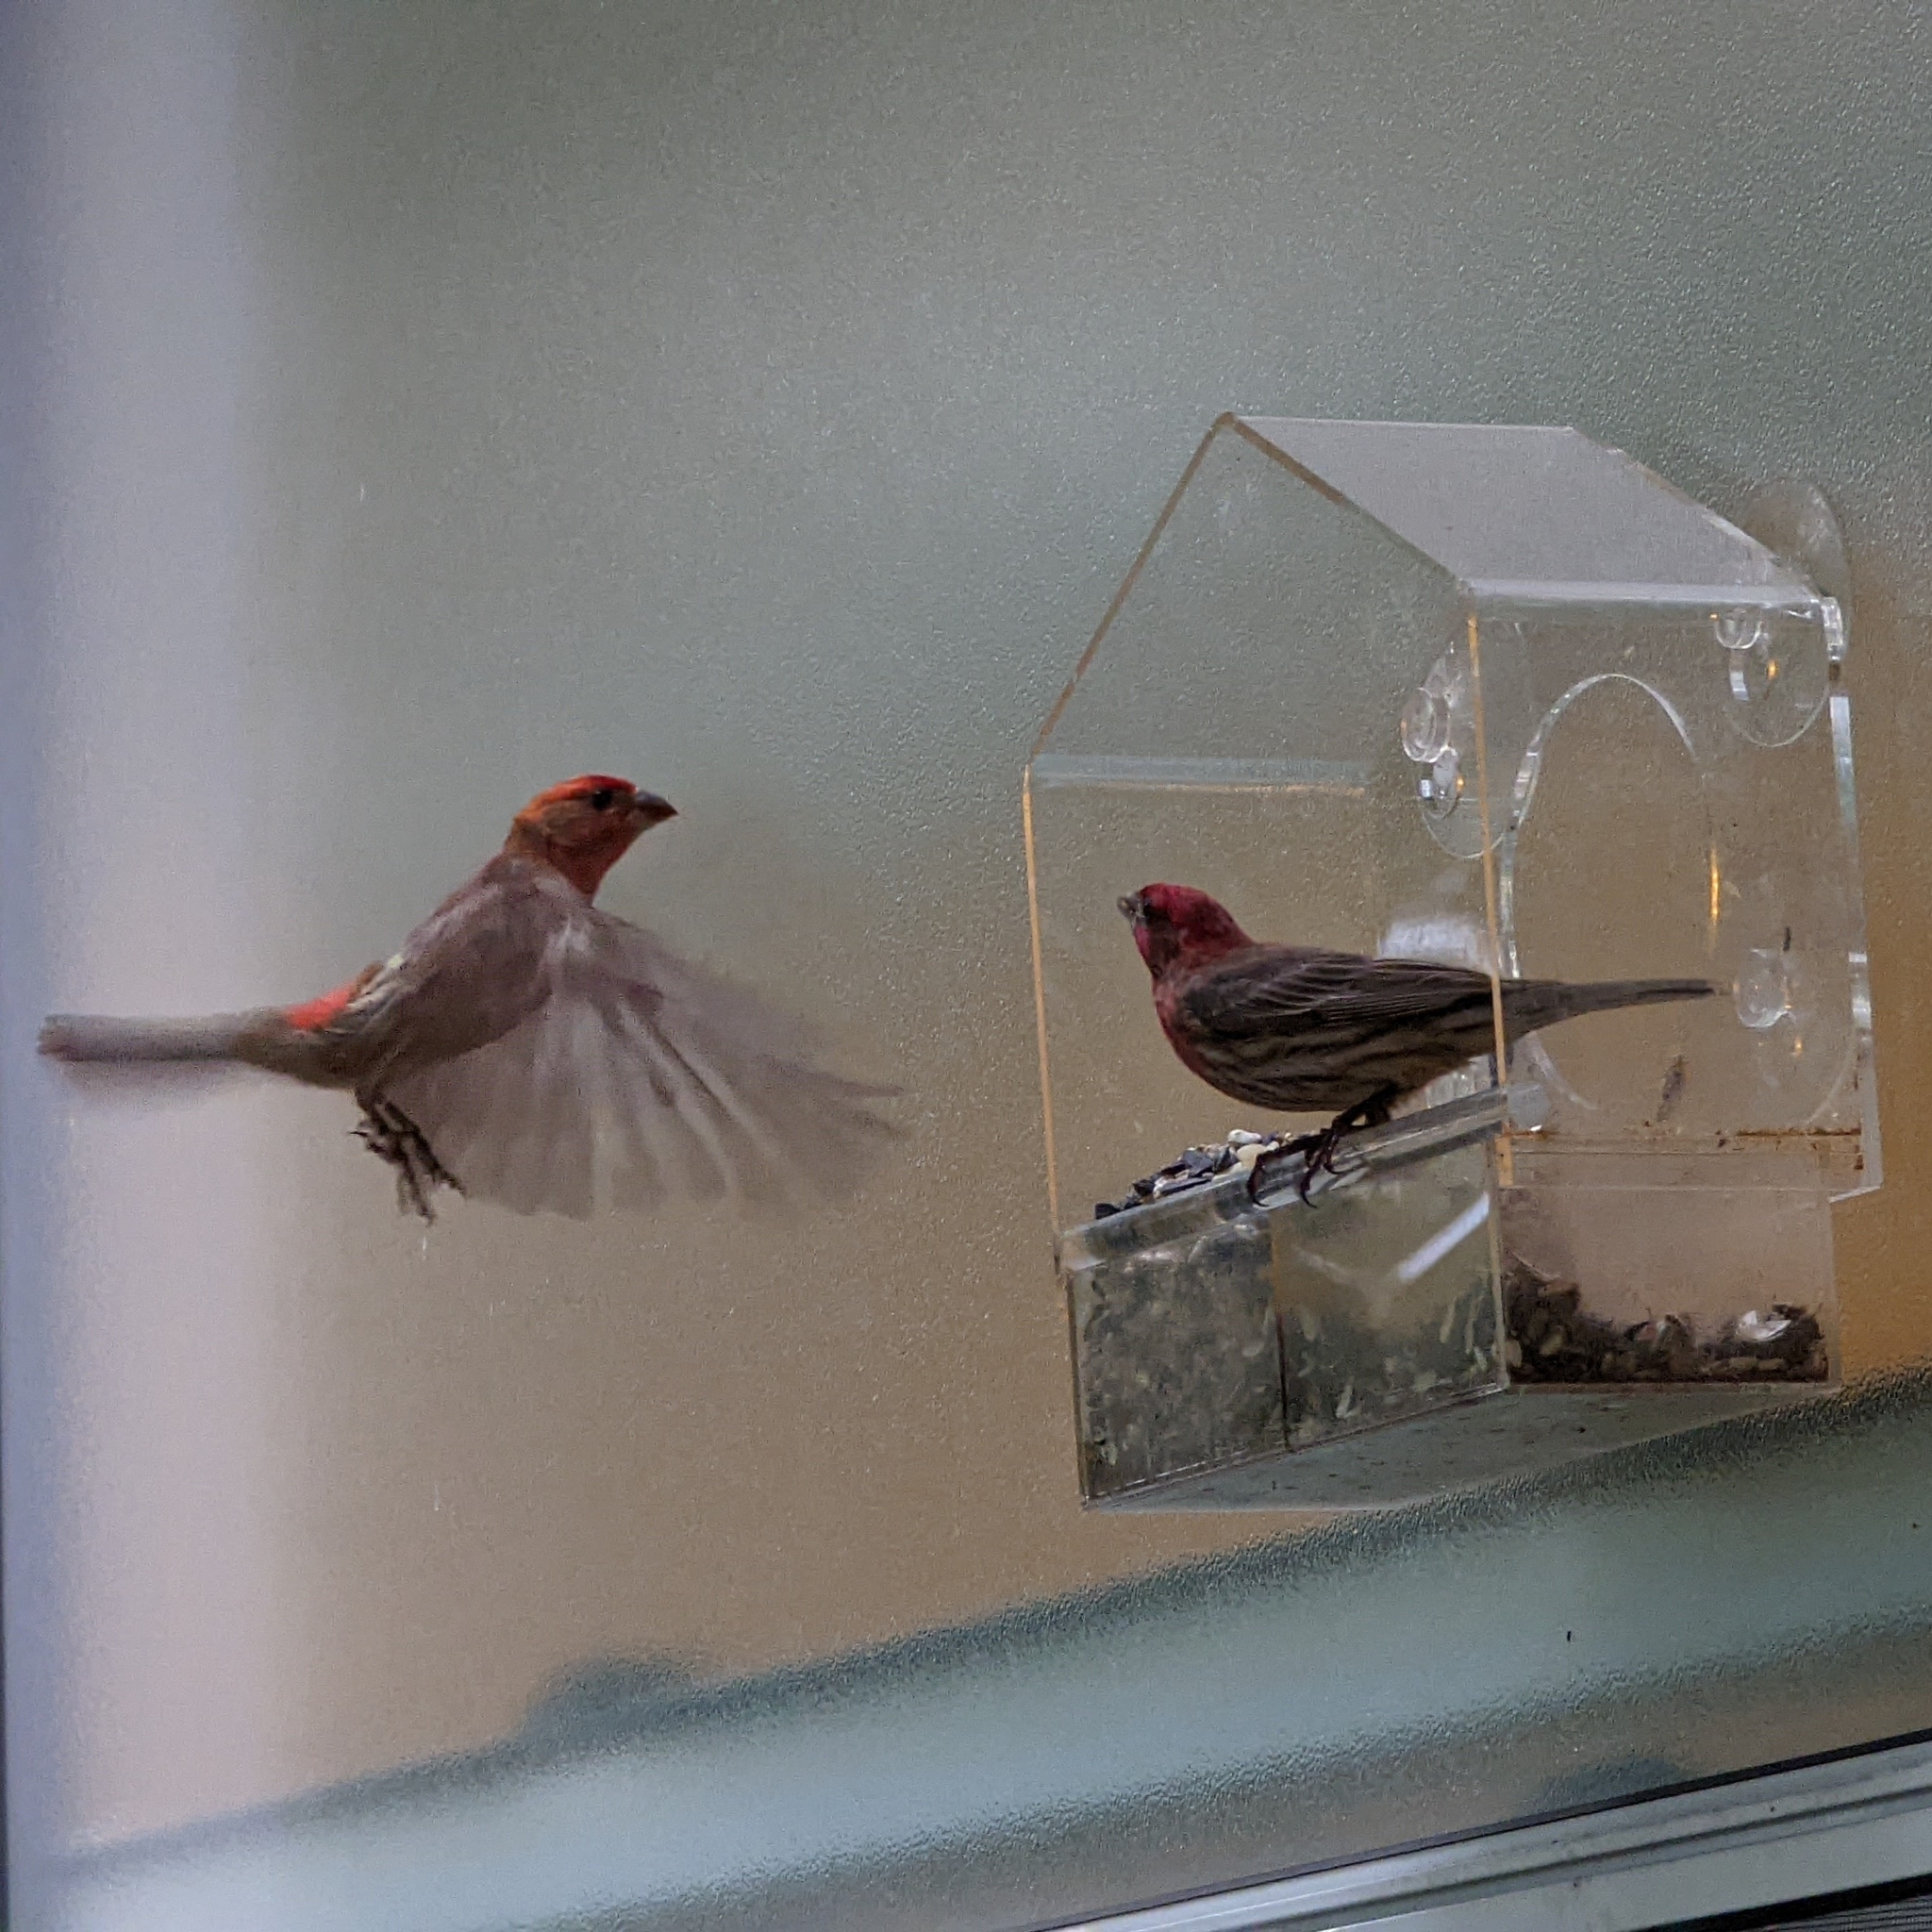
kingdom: Animalia
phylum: Chordata
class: Aves
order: Passeriformes
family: Fringillidae
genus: Haemorhous
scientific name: Haemorhous mexicanus
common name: House finch
